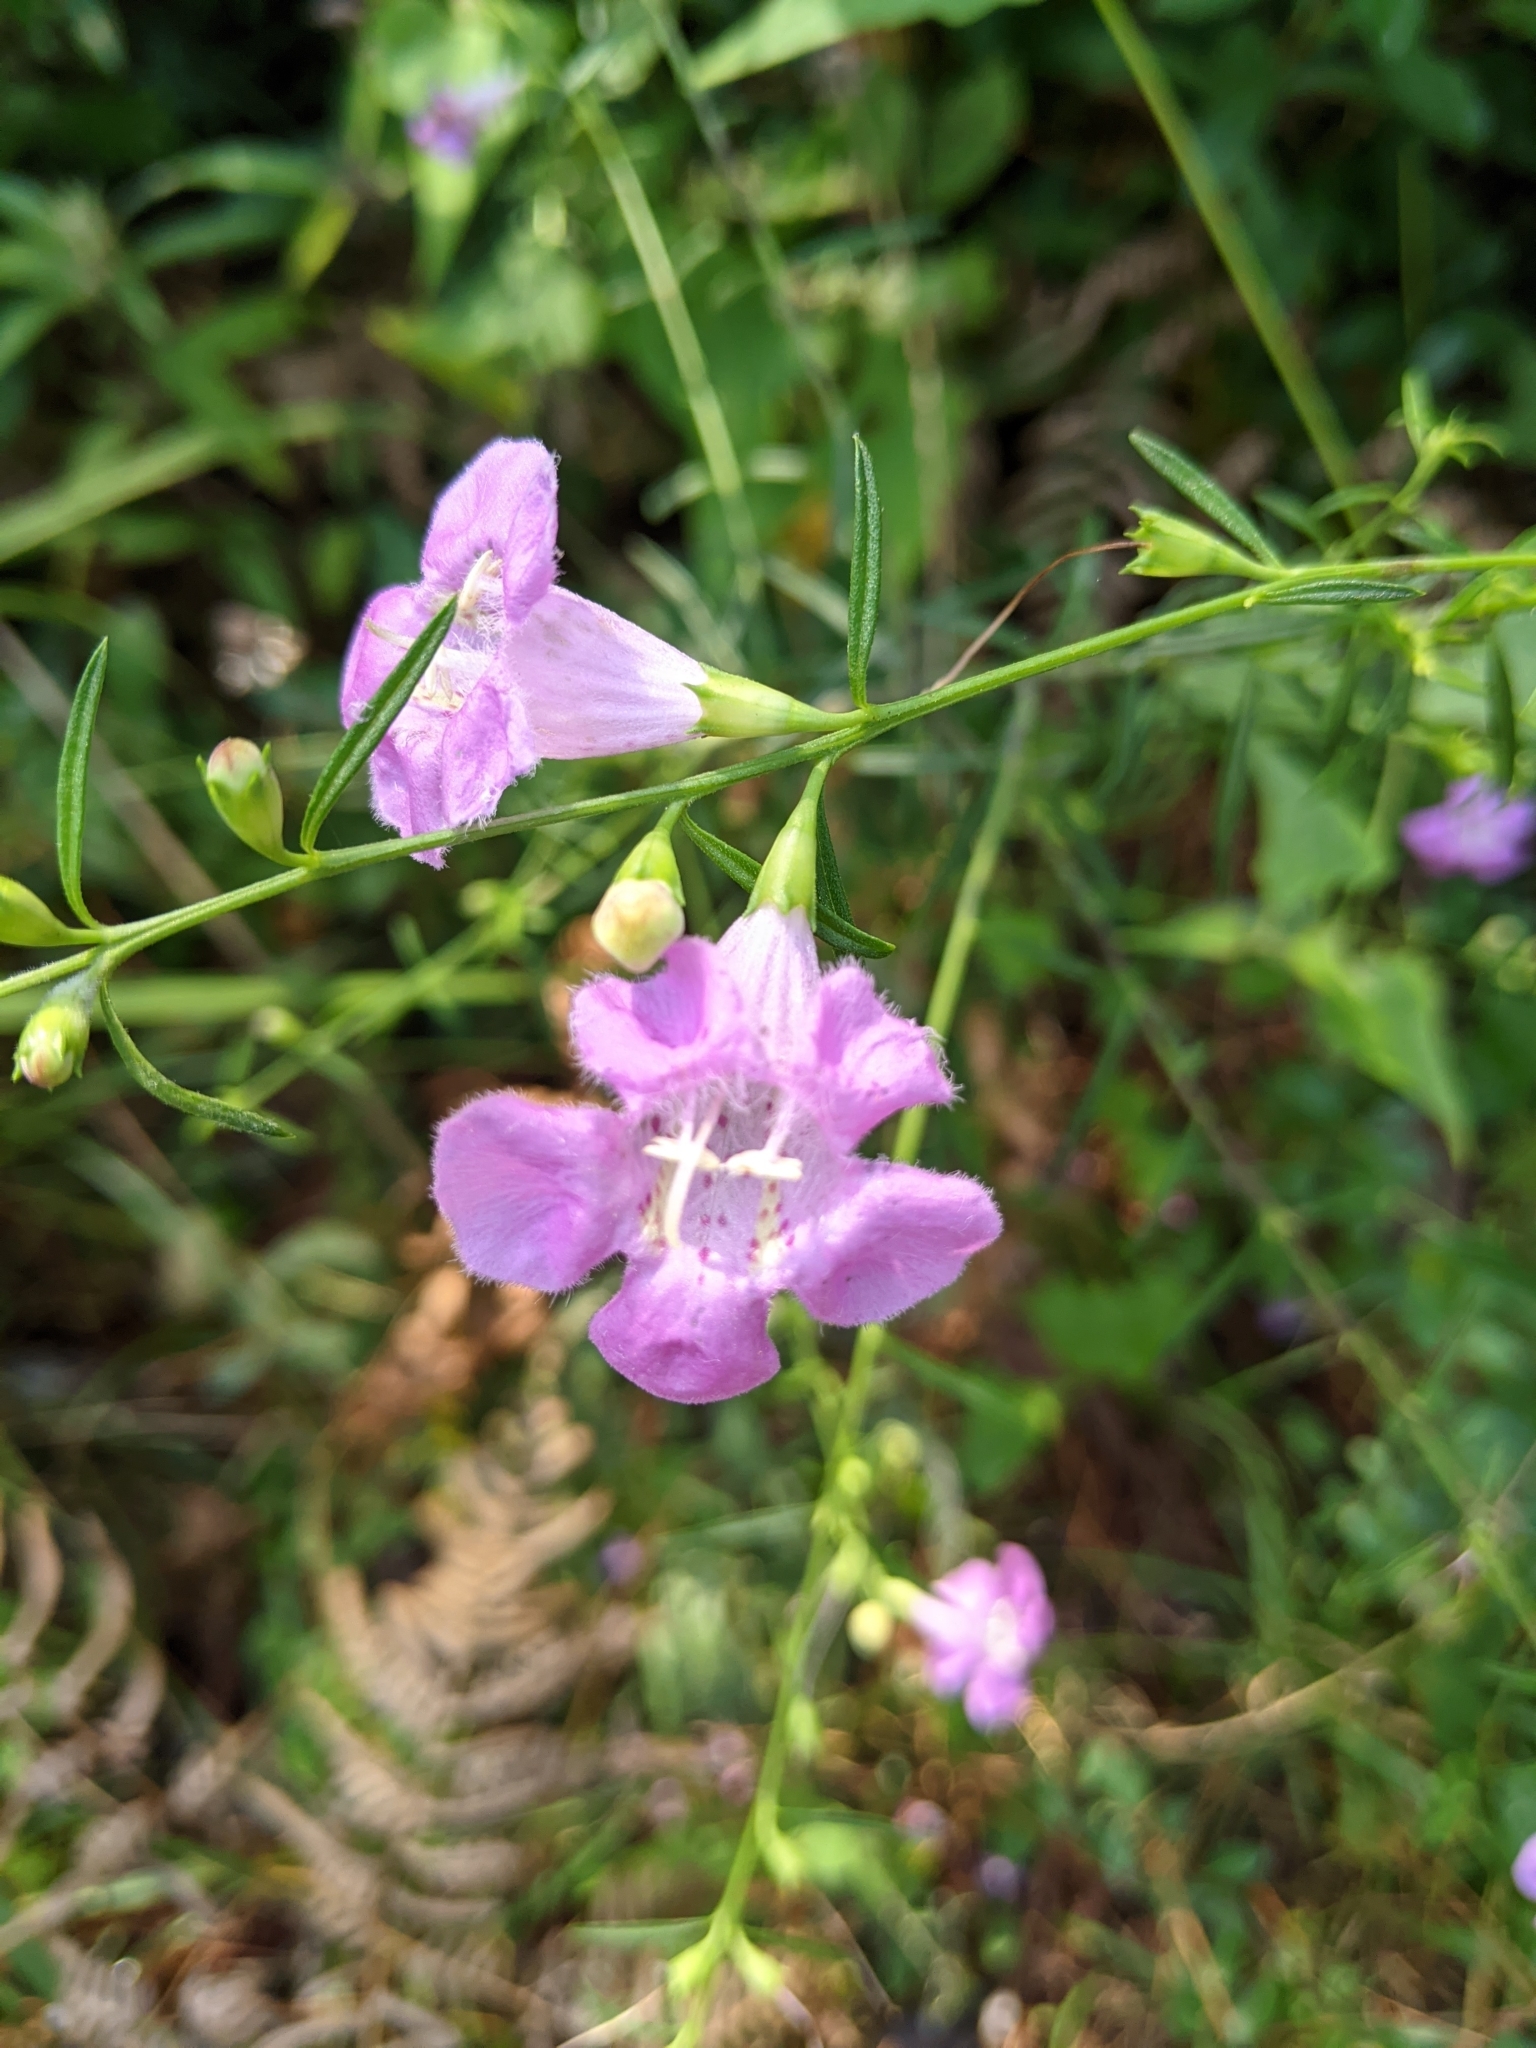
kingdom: Plantae
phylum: Tracheophyta
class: Magnoliopsida
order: Lamiales
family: Orobanchaceae
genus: Agalinis
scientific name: Agalinis purpurea
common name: Purple false foxglove
